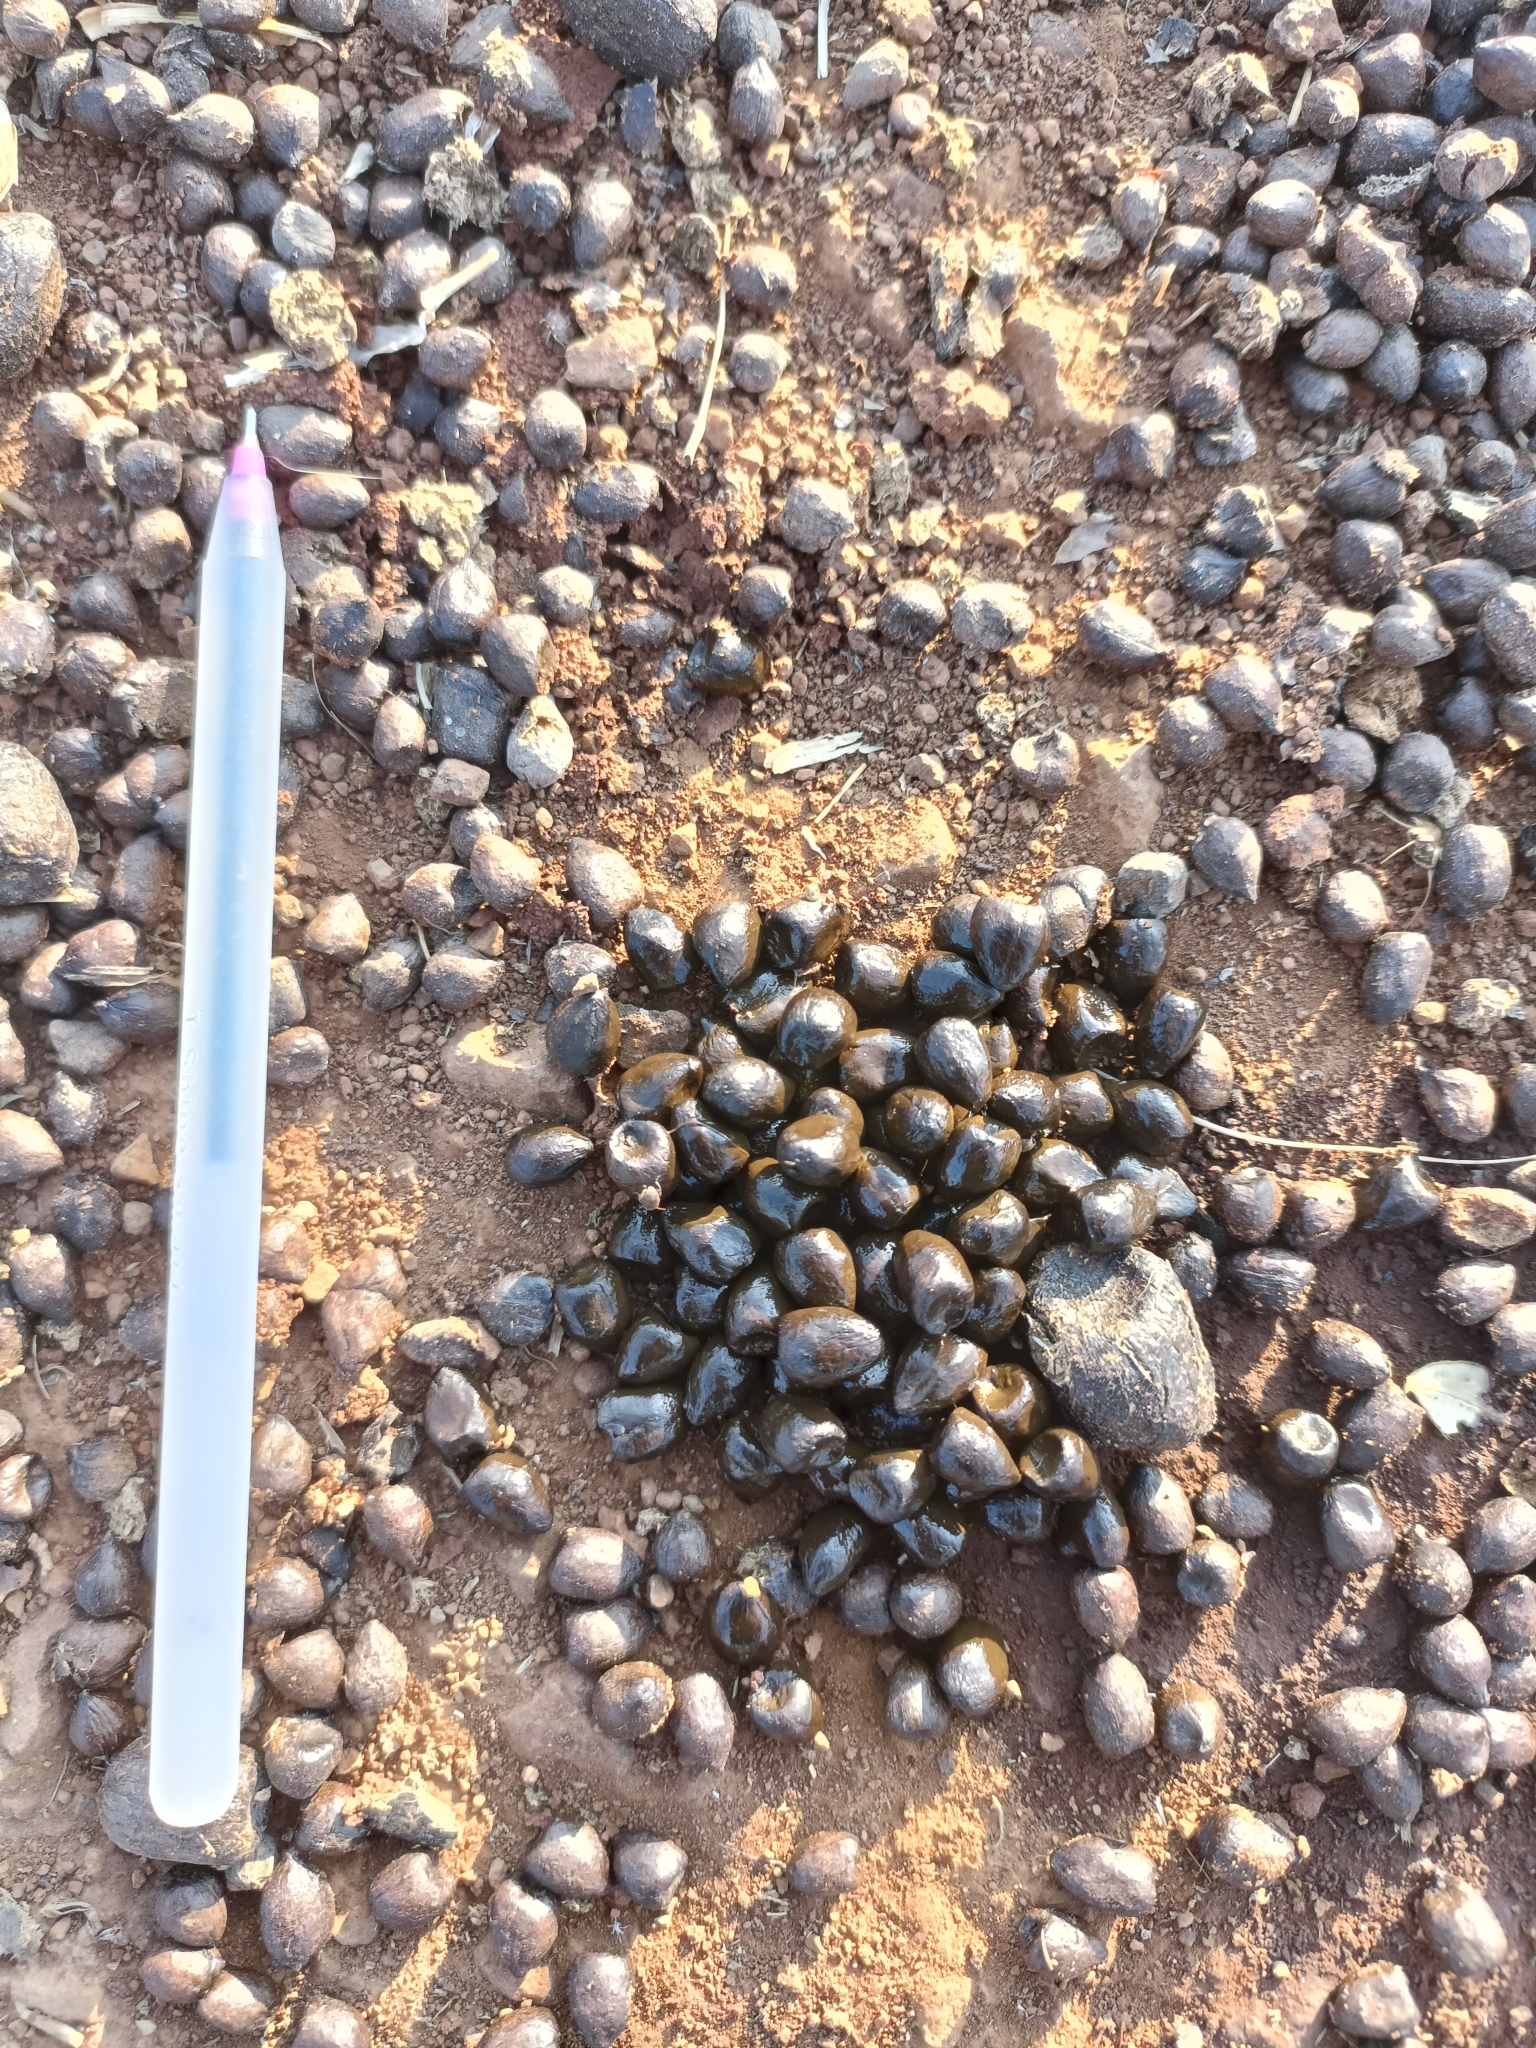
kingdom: Animalia
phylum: Chordata
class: Mammalia
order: Artiodactyla
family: Bovidae
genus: Gazella
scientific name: Gazella bennettii
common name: Indian gazelle
